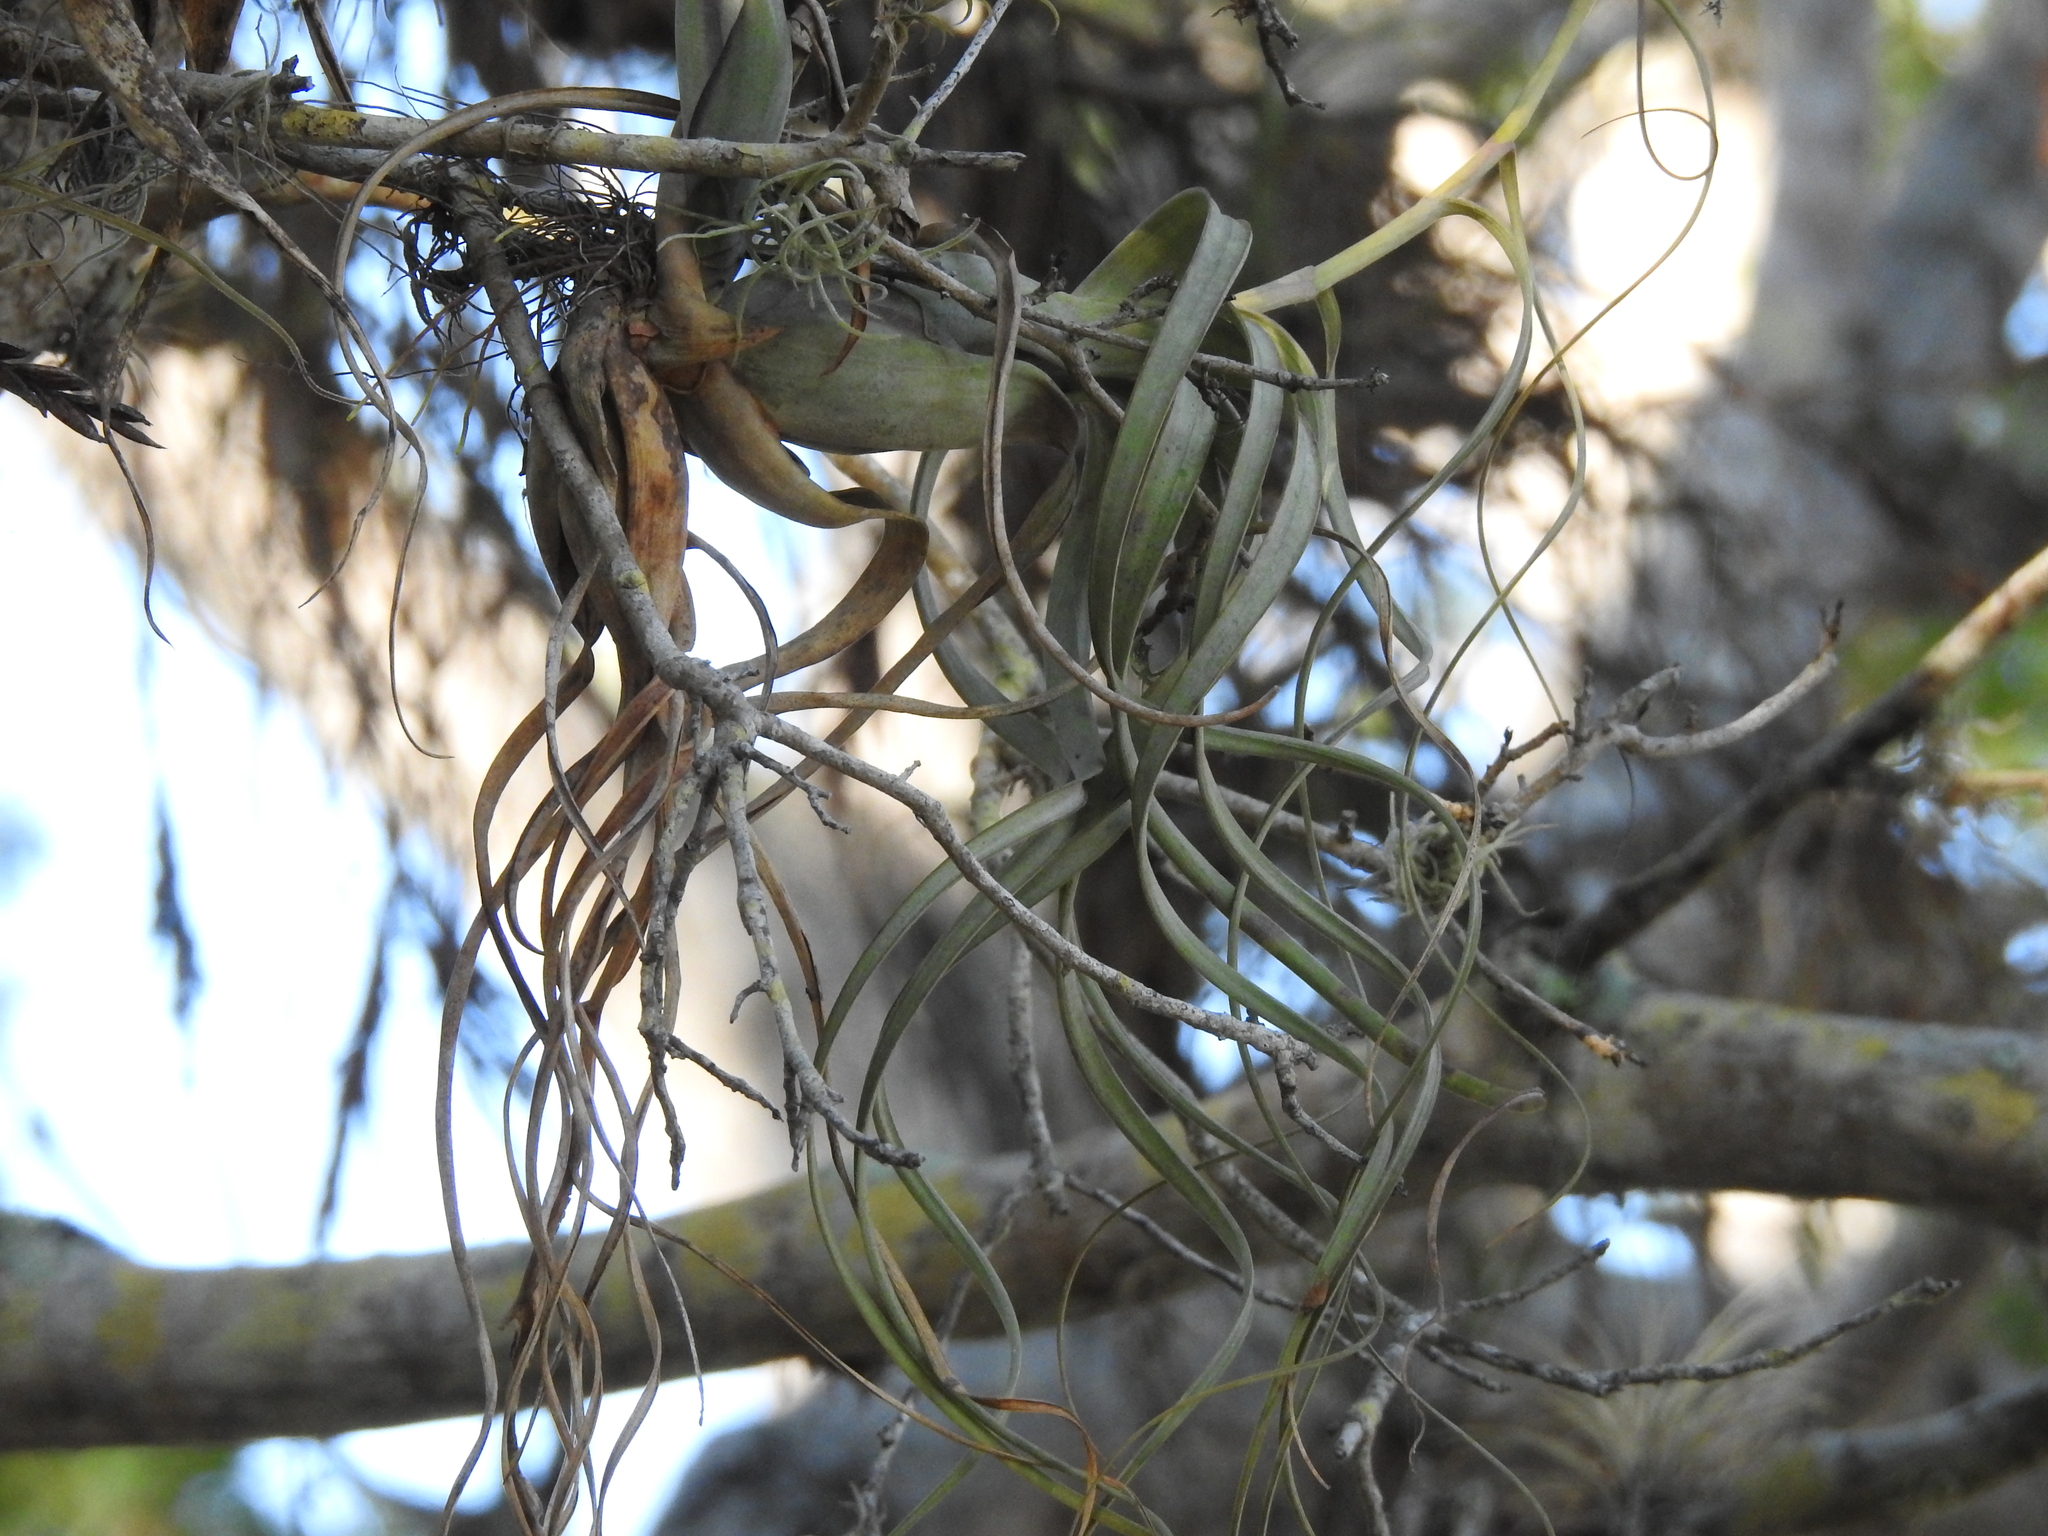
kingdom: Plantae
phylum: Tracheophyta
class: Liliopsida
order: Poales
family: Bromeliaceae
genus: Tillandsia
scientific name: Tillandsia balbisiana
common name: Northern needleleaf
